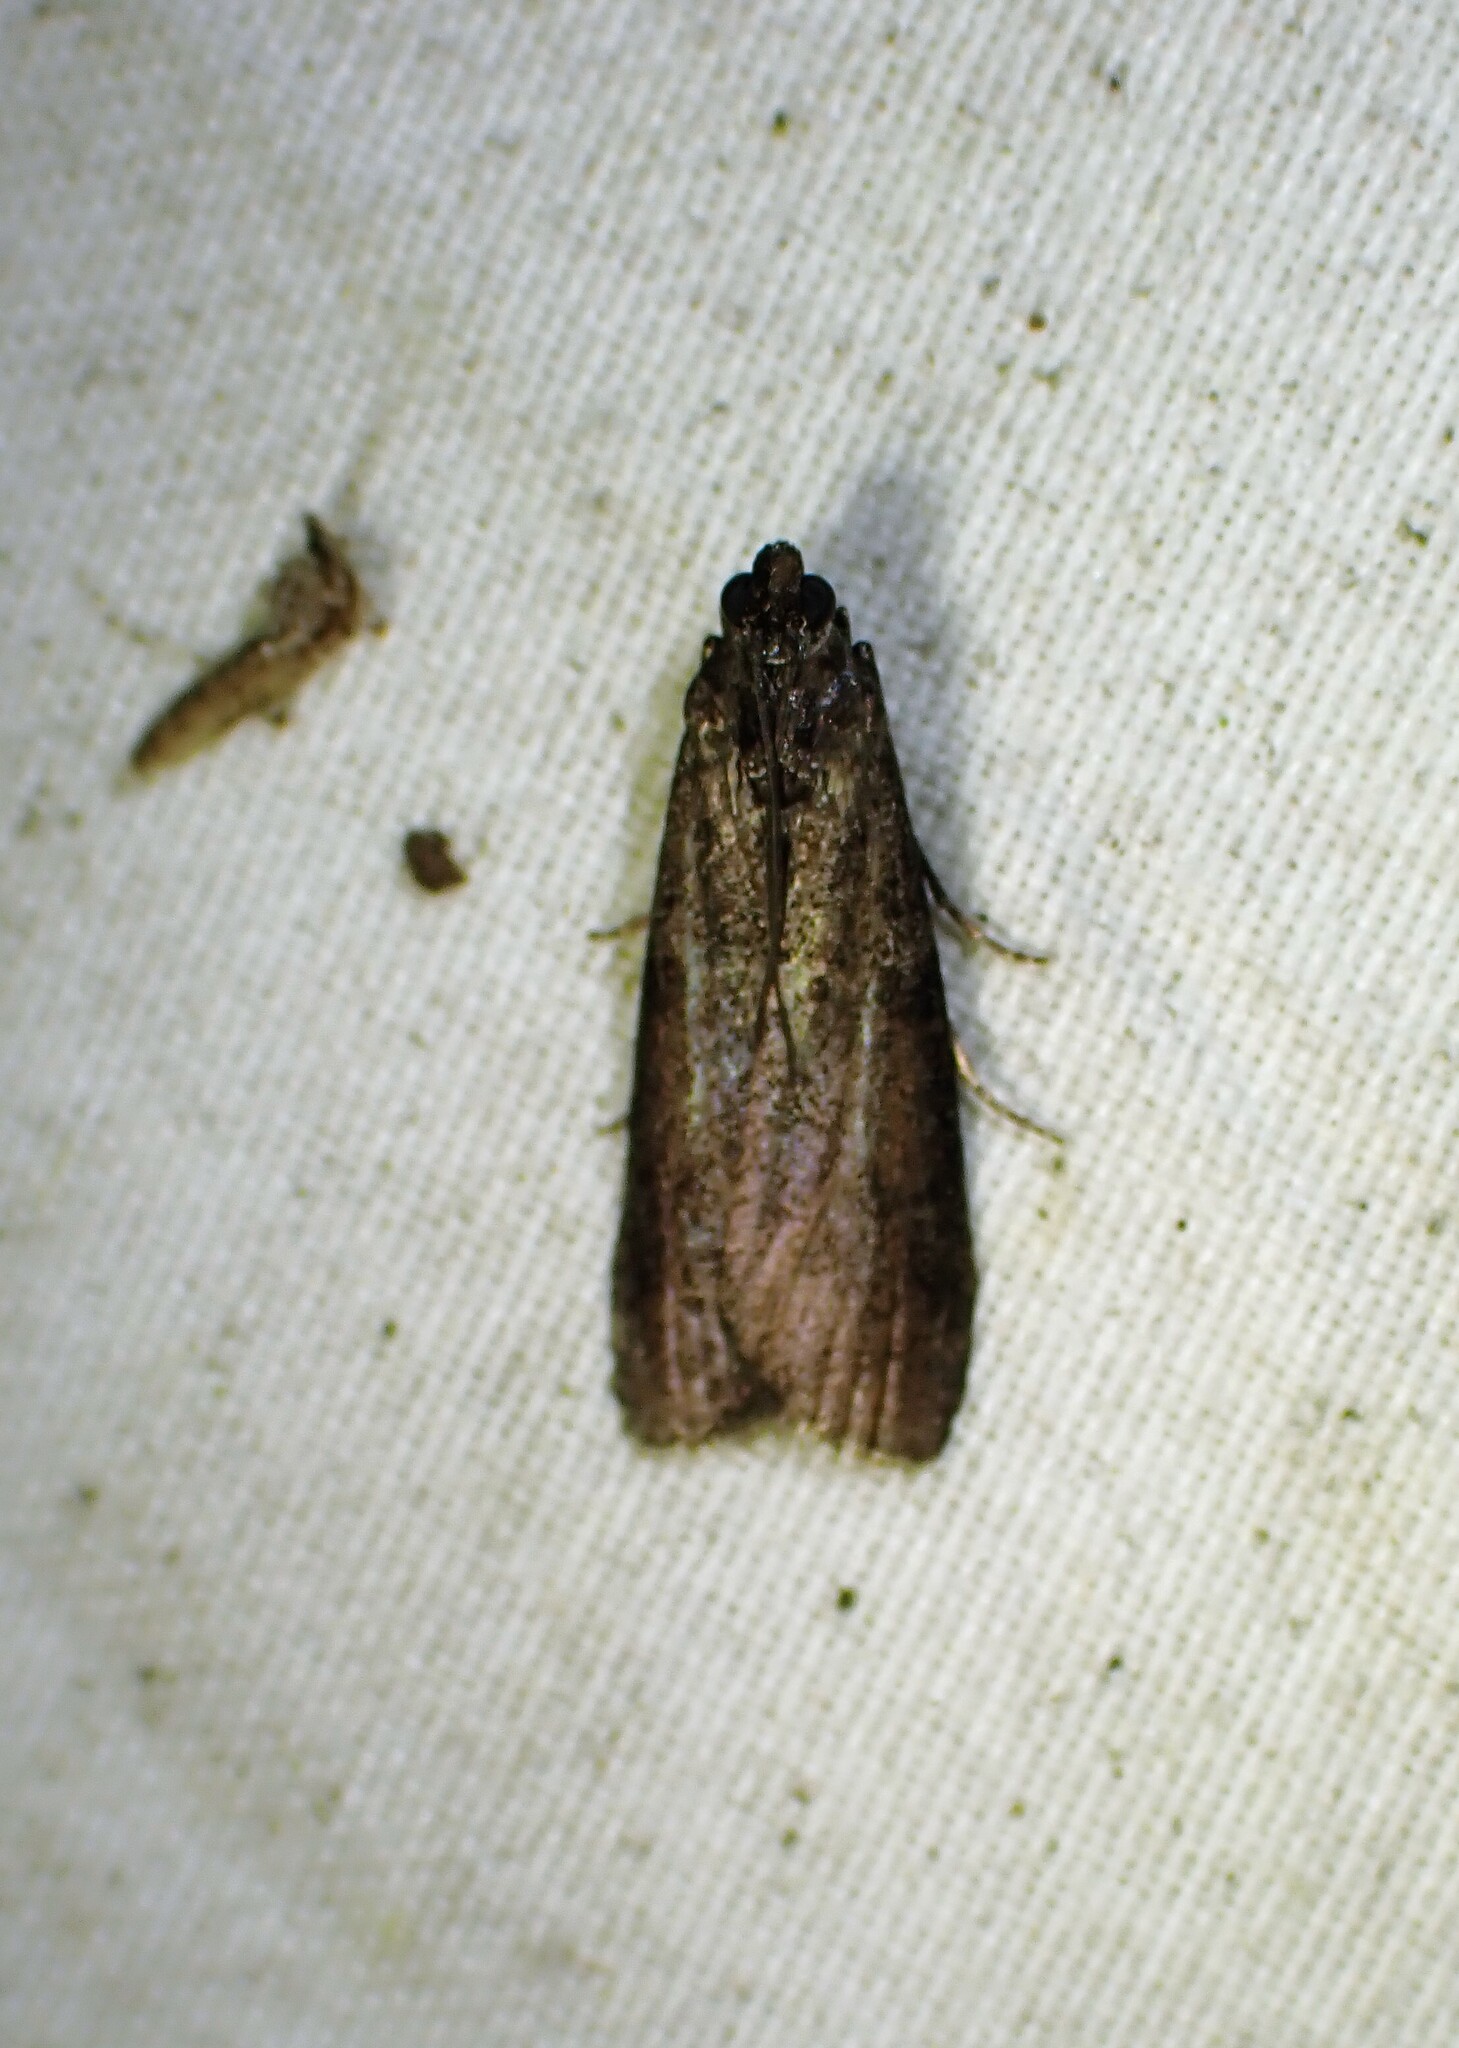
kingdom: Animalia
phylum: Arthropoda
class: Insecta
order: Lepidoptera
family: Pyralidae
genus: Pyla
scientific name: Pyla fusca
